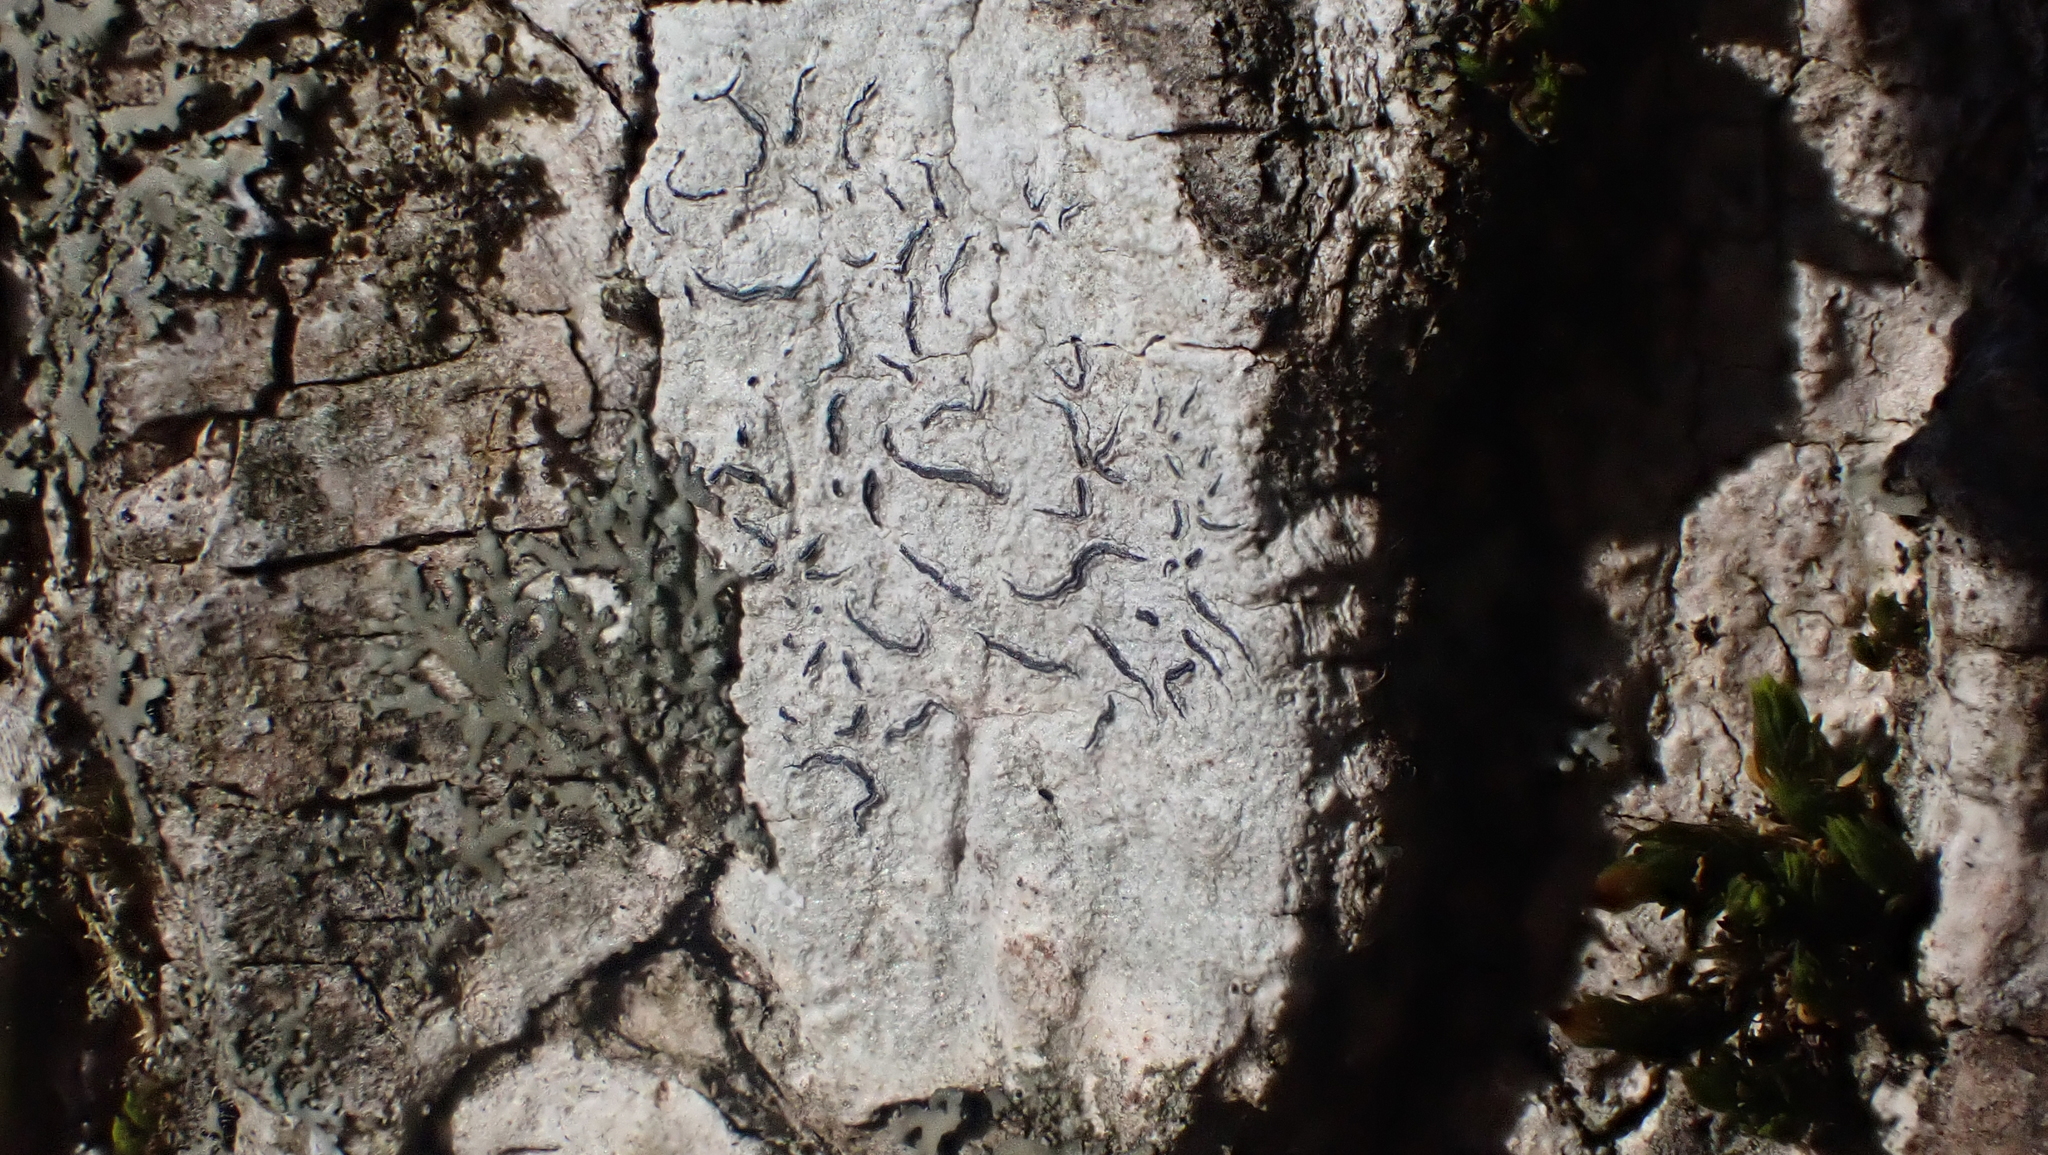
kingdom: Fungi
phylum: Ascomycota
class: Lecanoromycetes
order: Ostropales
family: Graphidaceae
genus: Graphis
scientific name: Graphis scripta
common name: Script lichen
